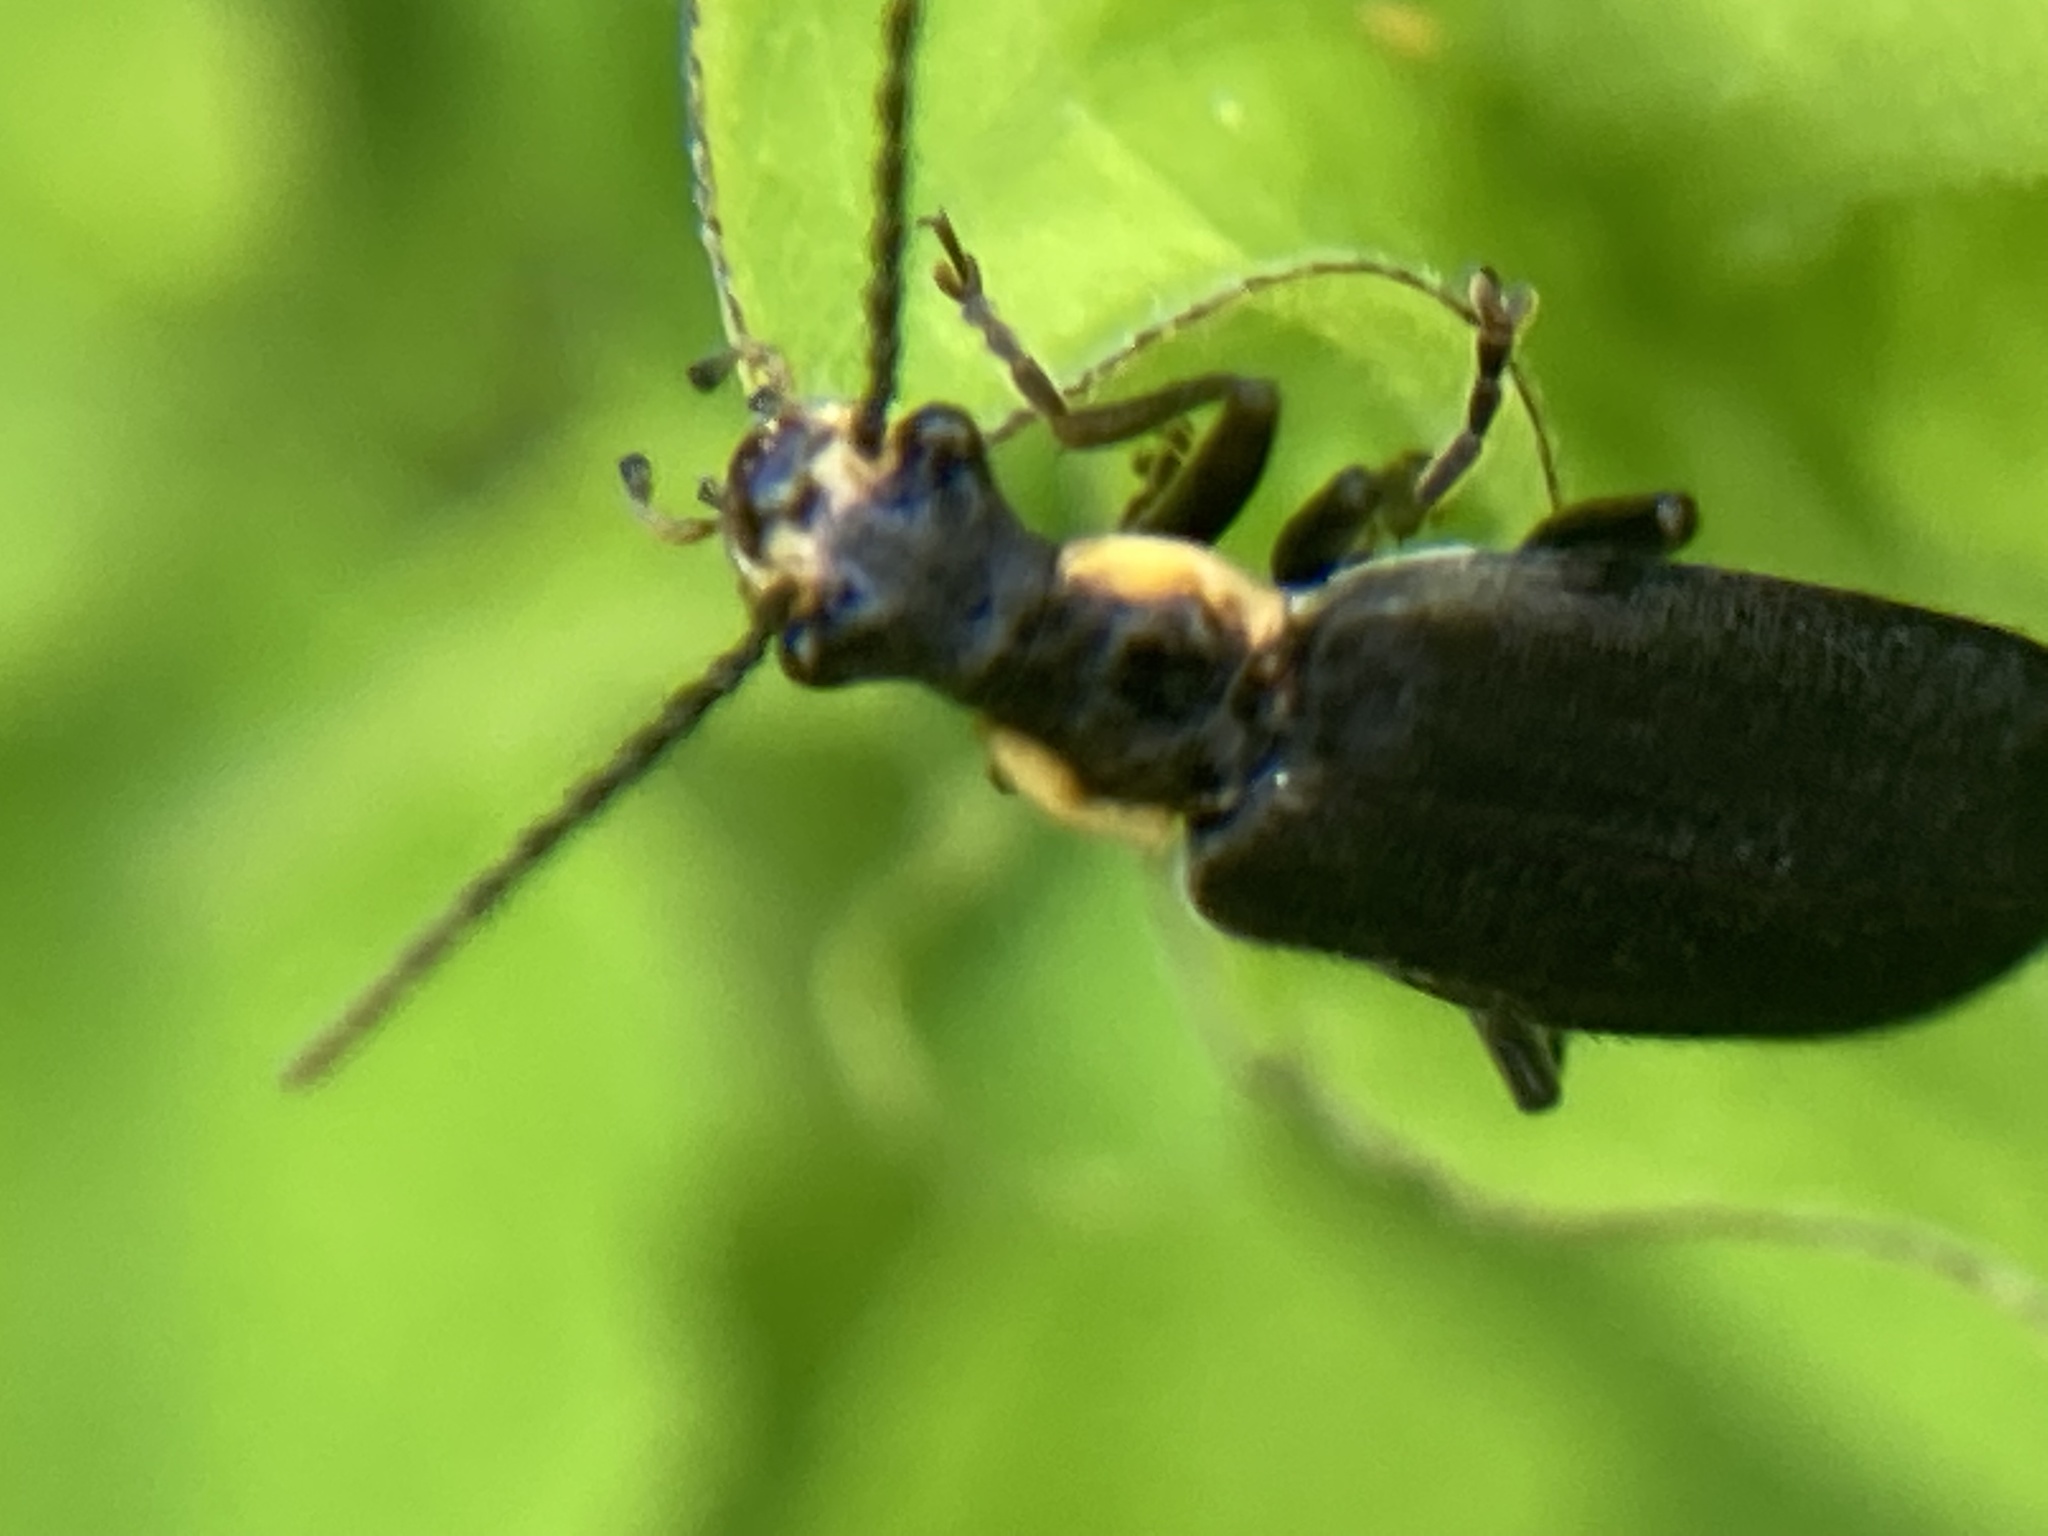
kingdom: Animalia
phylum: Arthropoda
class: Insecta
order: Coleoptera
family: Cantharidae
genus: Podabrus
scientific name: Podabrus rugosulus
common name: Wrinkled soldier beetle
